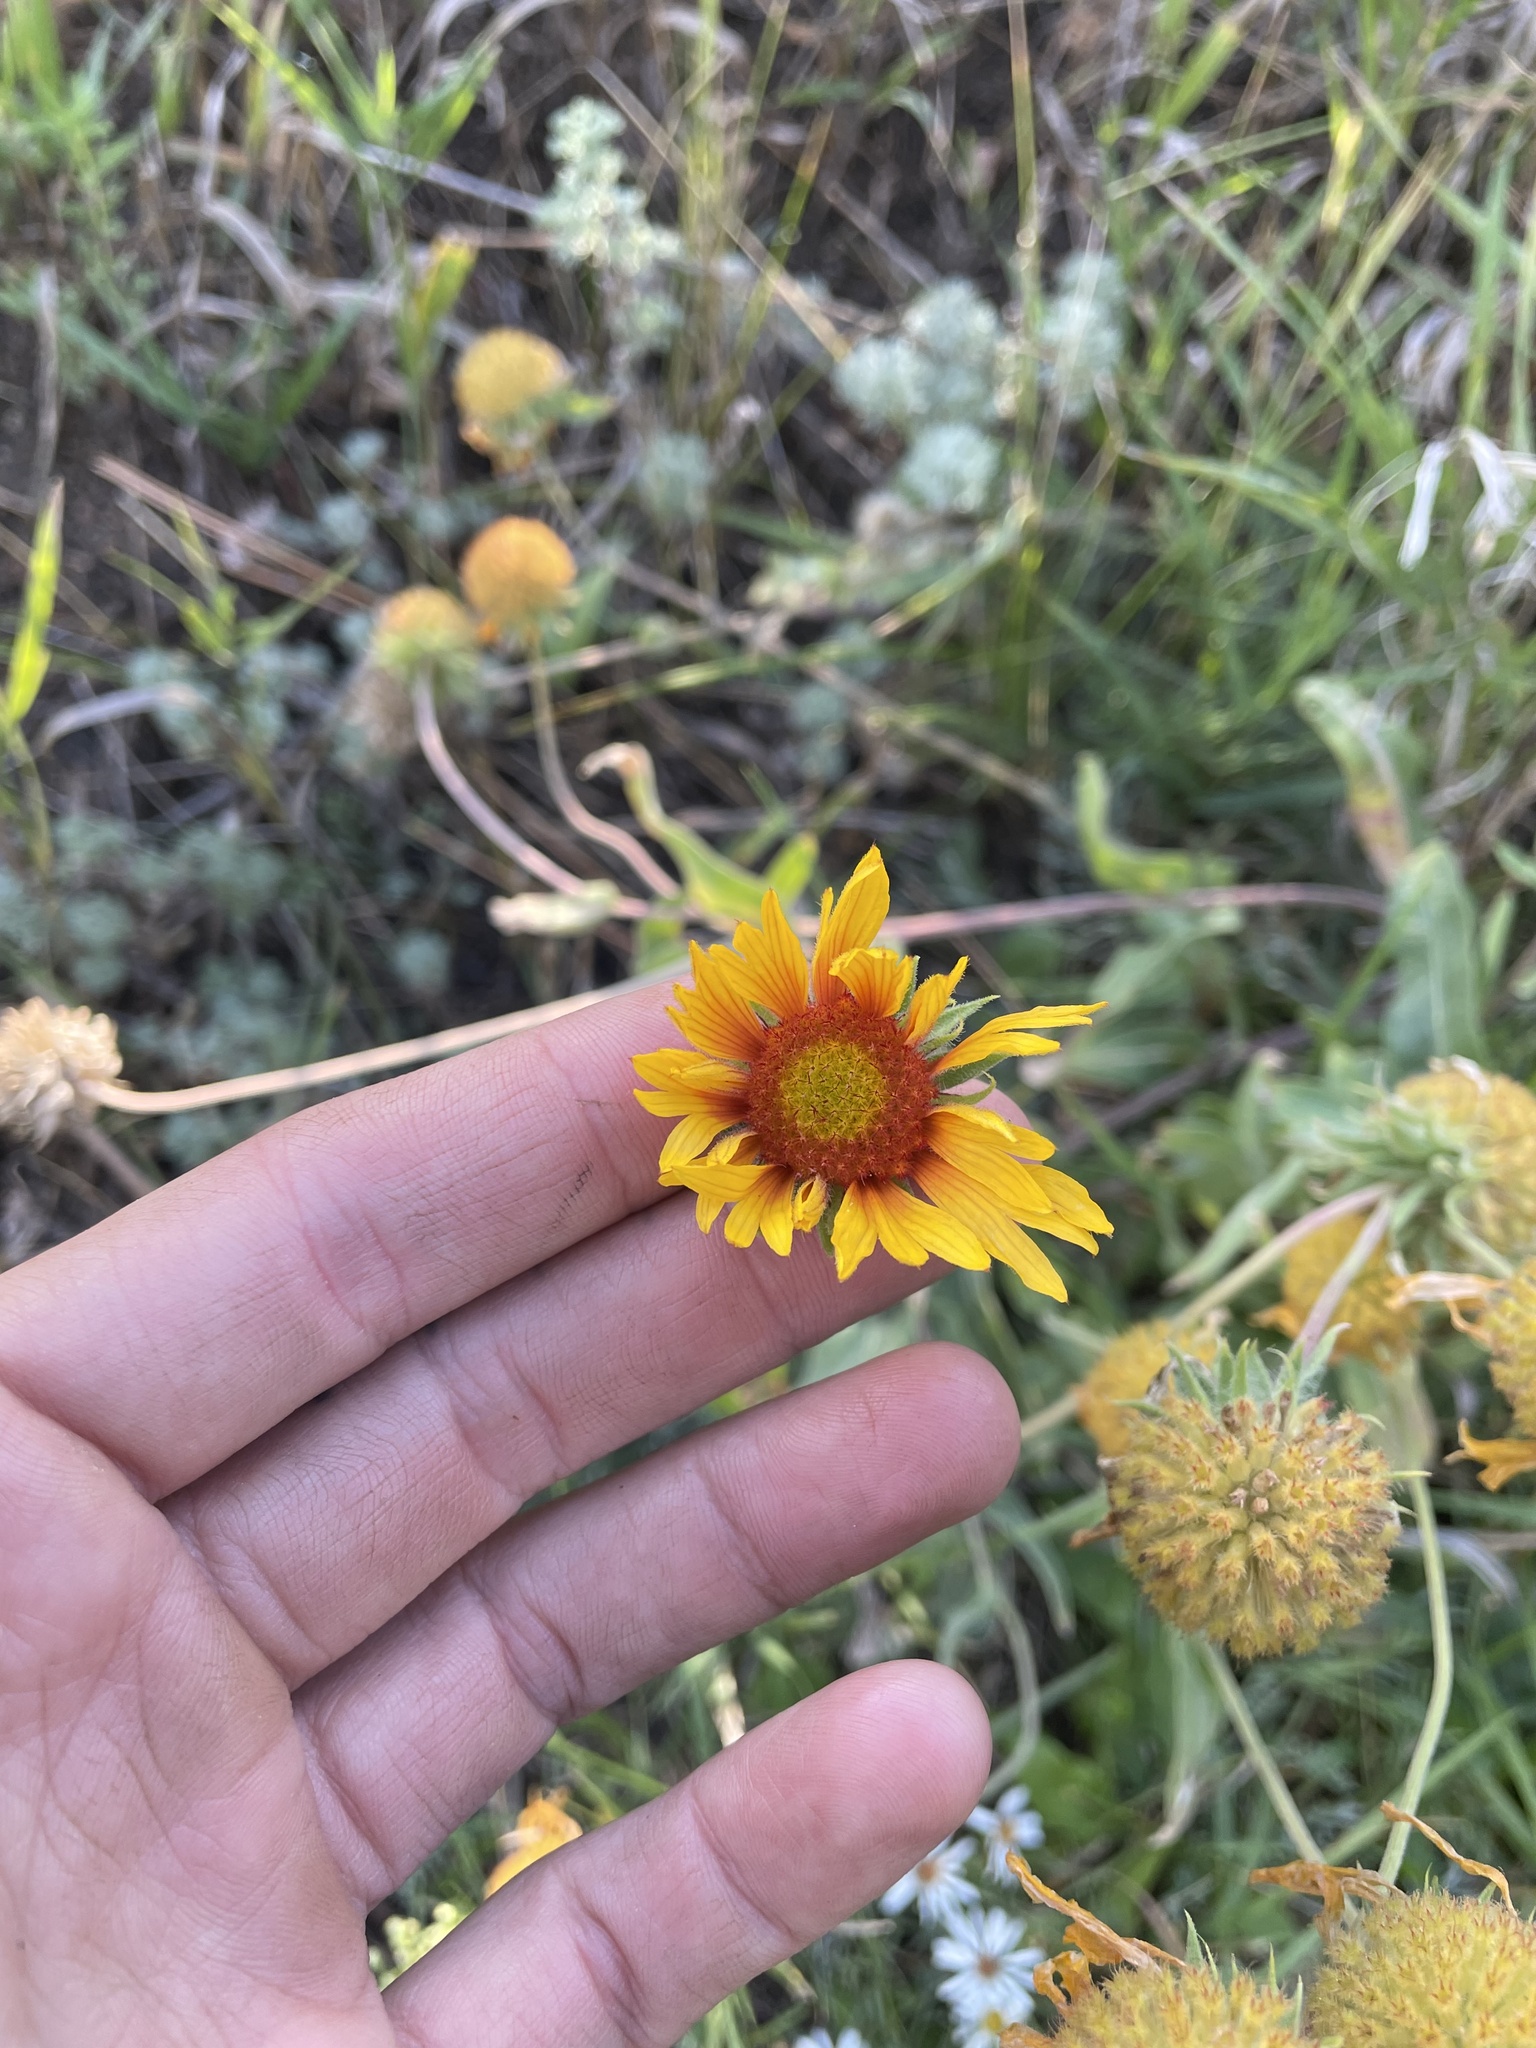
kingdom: Plantae
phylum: Tracheophyta
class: Magnoliopsida
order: Asterales
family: Asteraceae
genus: Gaillardia
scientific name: Gaillardia aristata
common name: Blanket-flower
